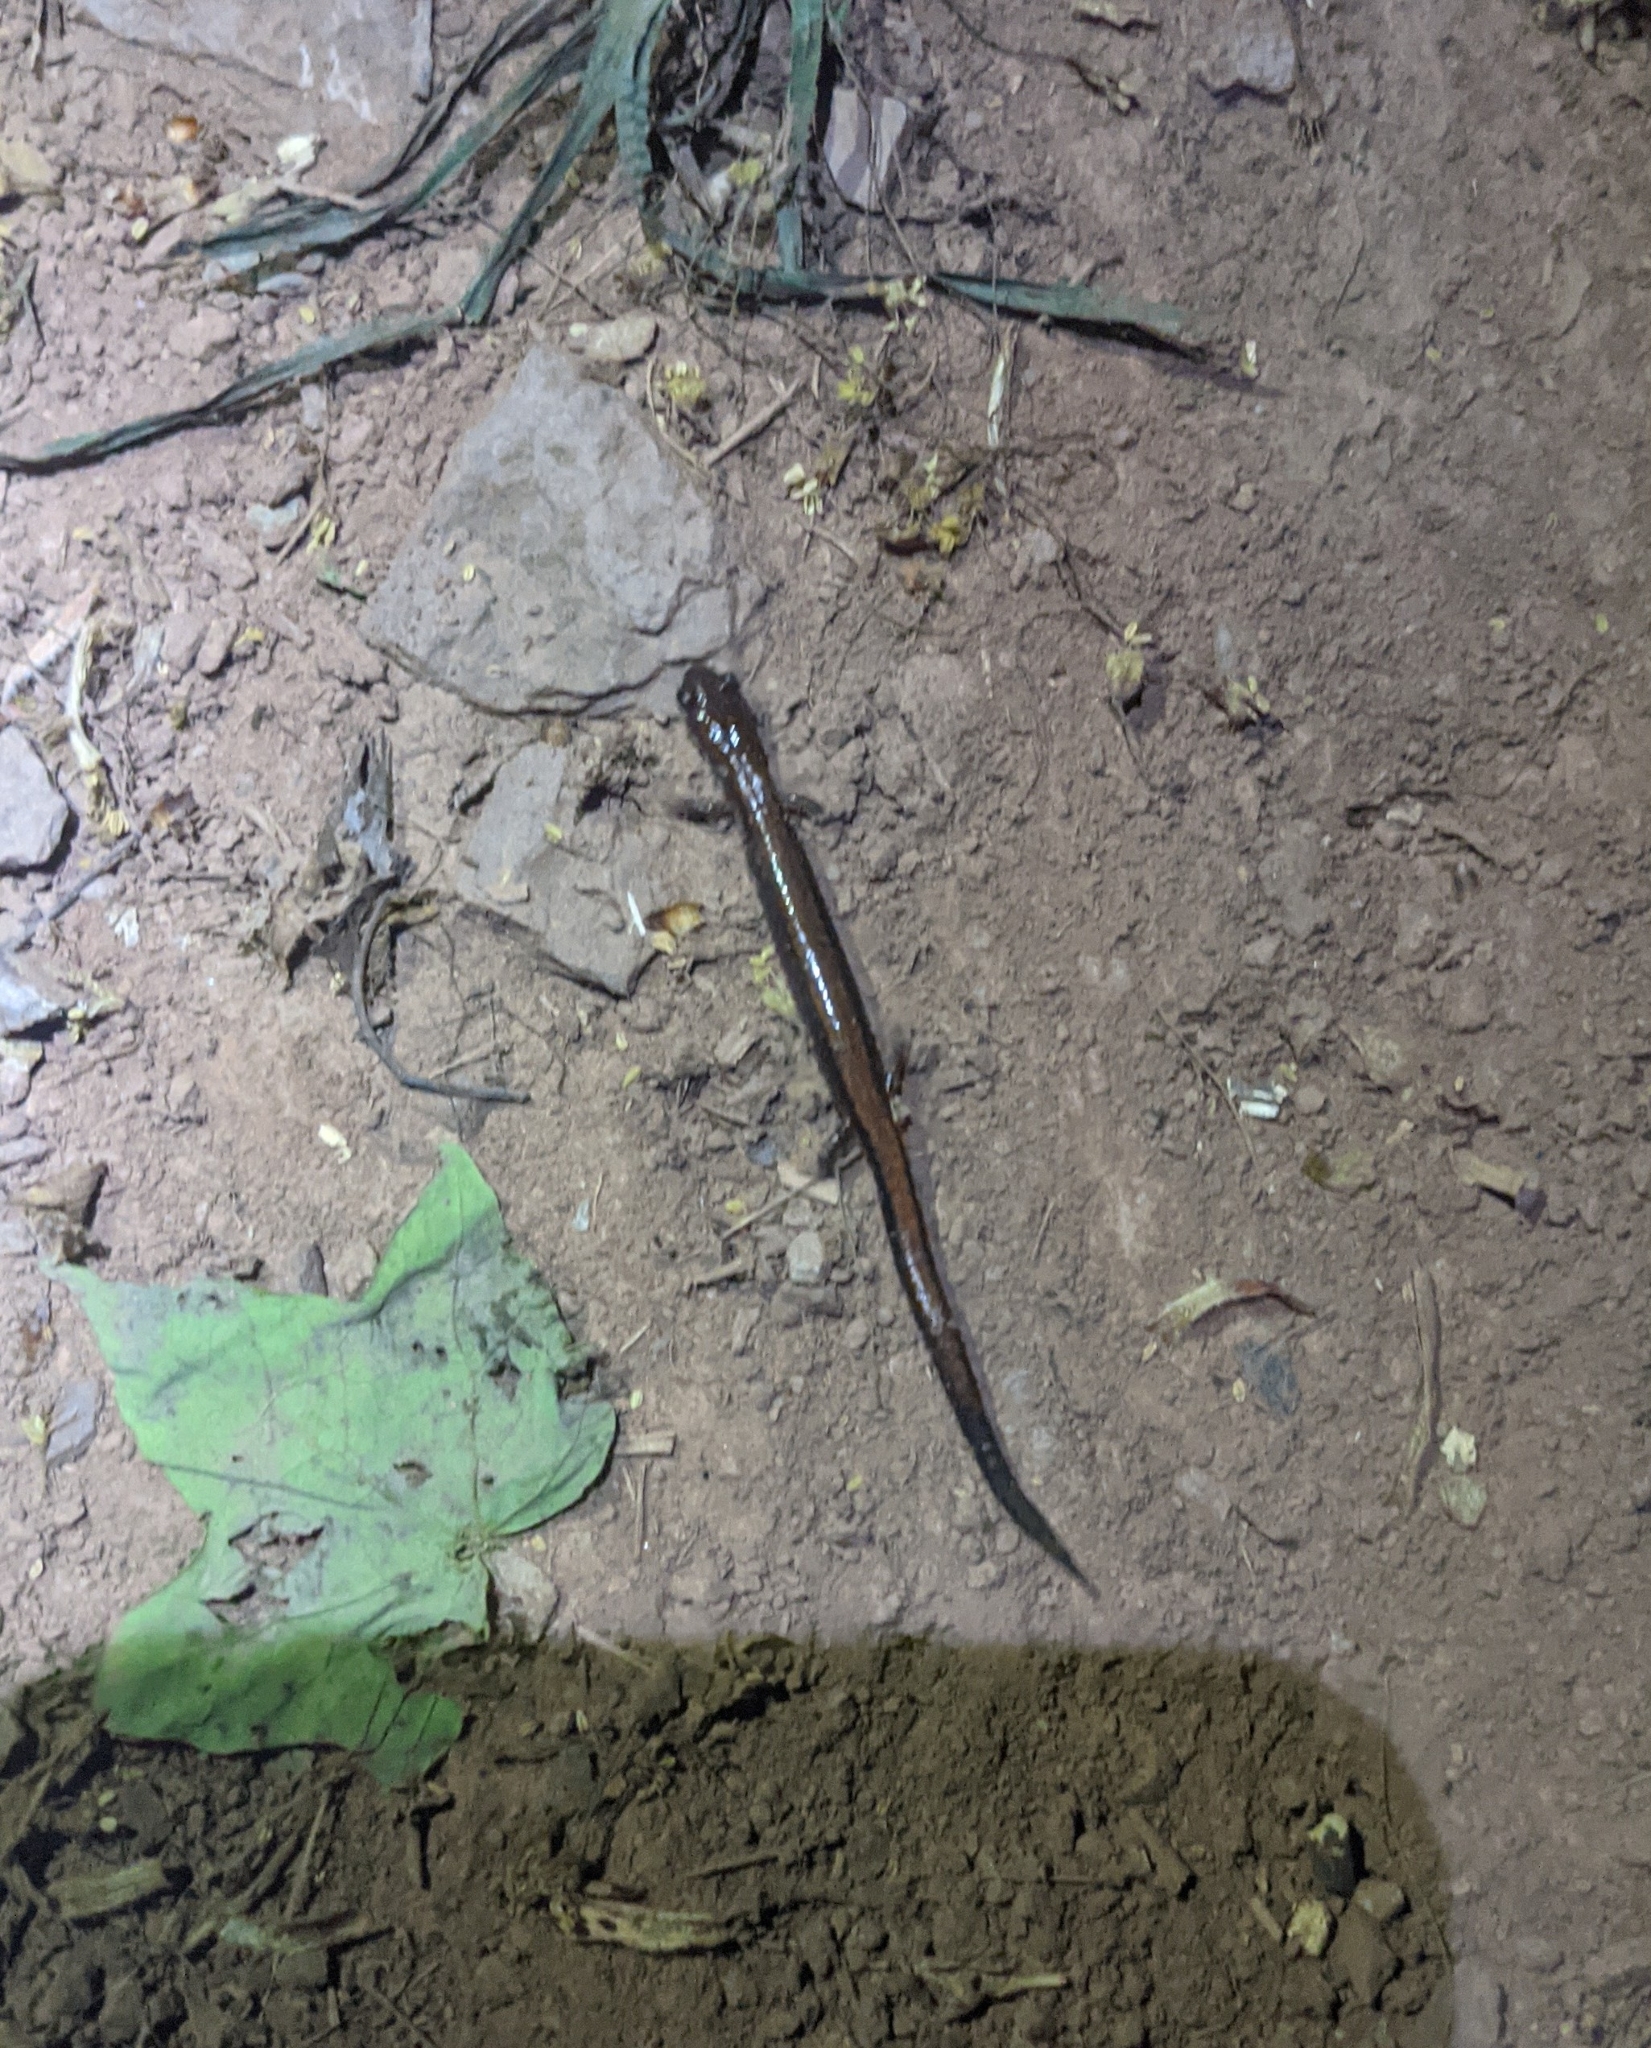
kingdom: Animalia
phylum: Chordata
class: Amphibia
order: Caudata
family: Plethodontidae
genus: Plethodon
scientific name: Plethodon cinereus
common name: Redback salamander
